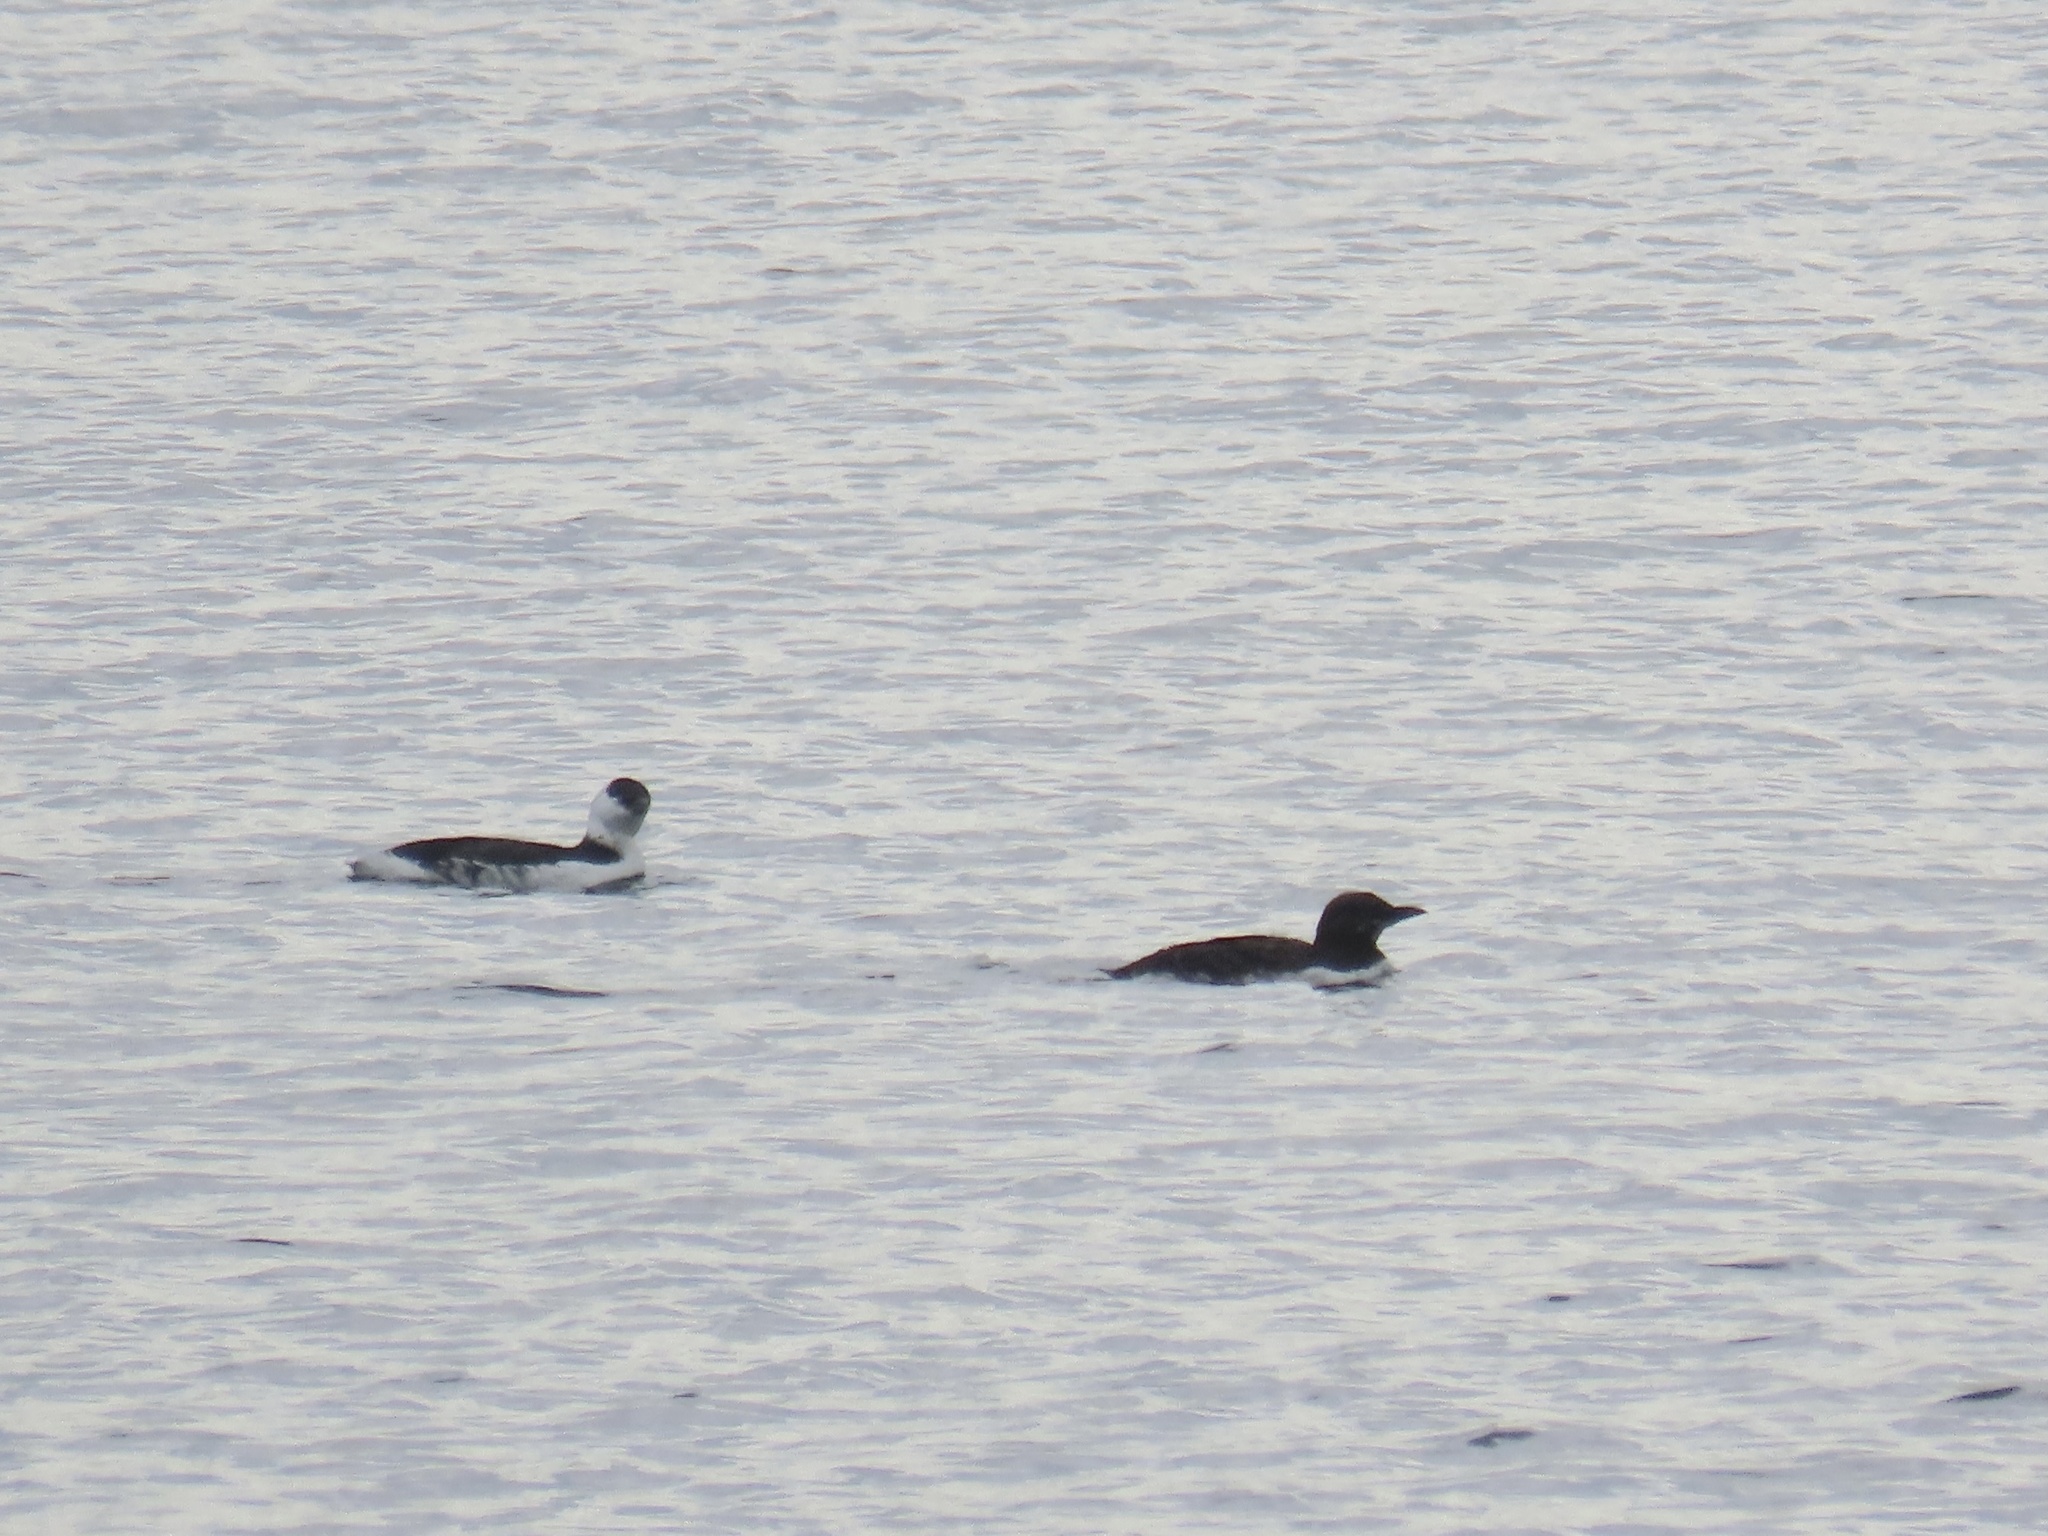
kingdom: Animalia
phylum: Chordata
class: Aves
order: Charadriiformes
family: Alcidae
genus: Uria
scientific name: Uria aalge
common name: Common murre
